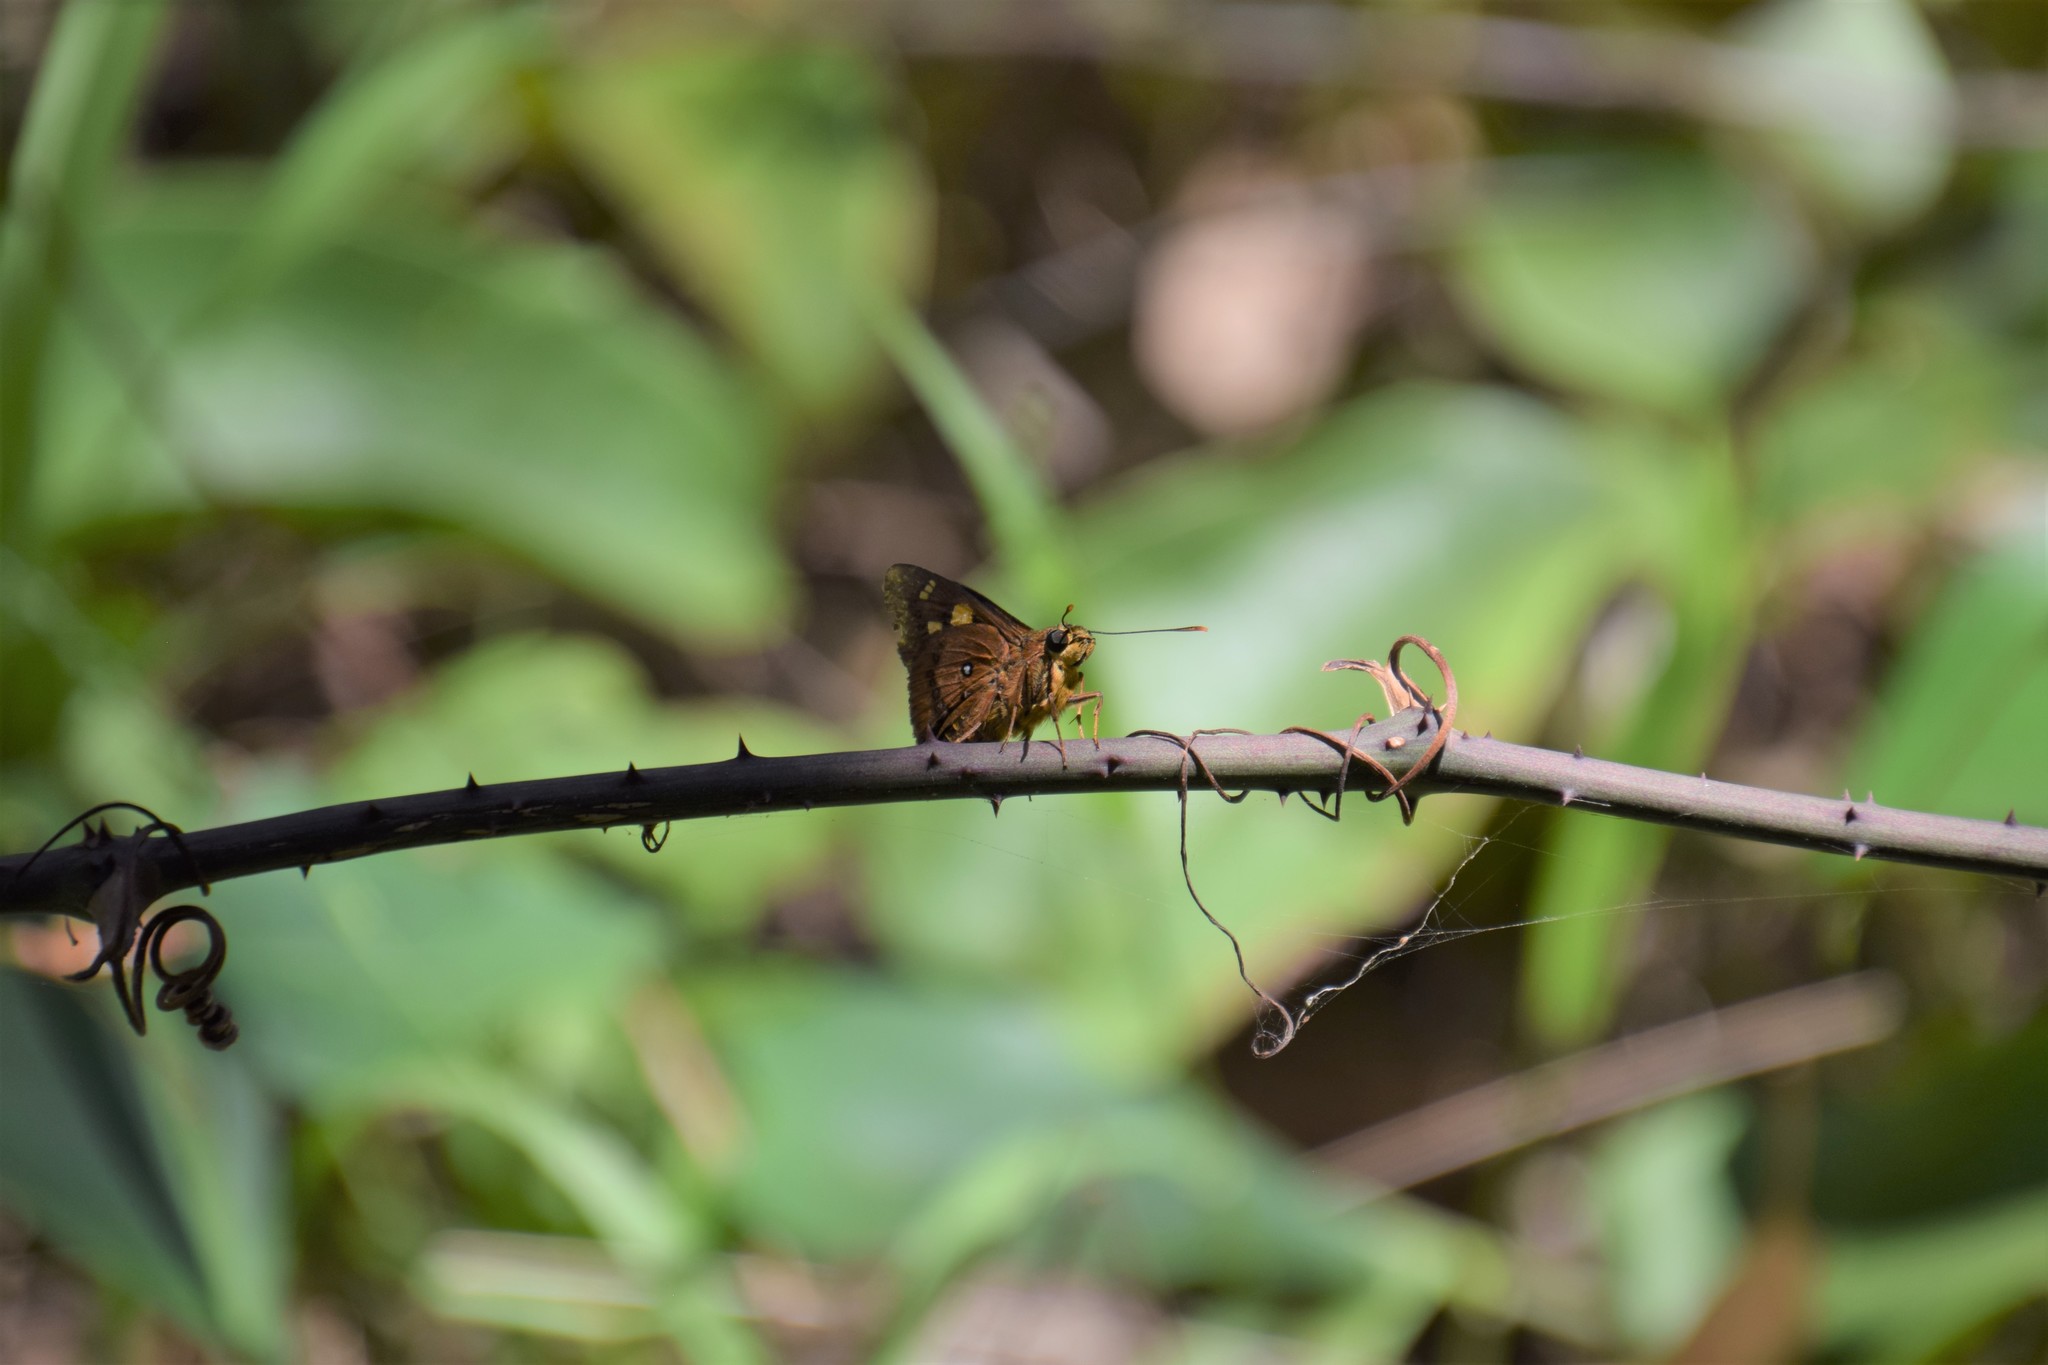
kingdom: Animalia
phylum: Arthropoda
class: Insecta
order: Lepidoptera
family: Hesperiidae
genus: Trapezites
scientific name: Trapezites symmomus
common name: Splendid ochre
